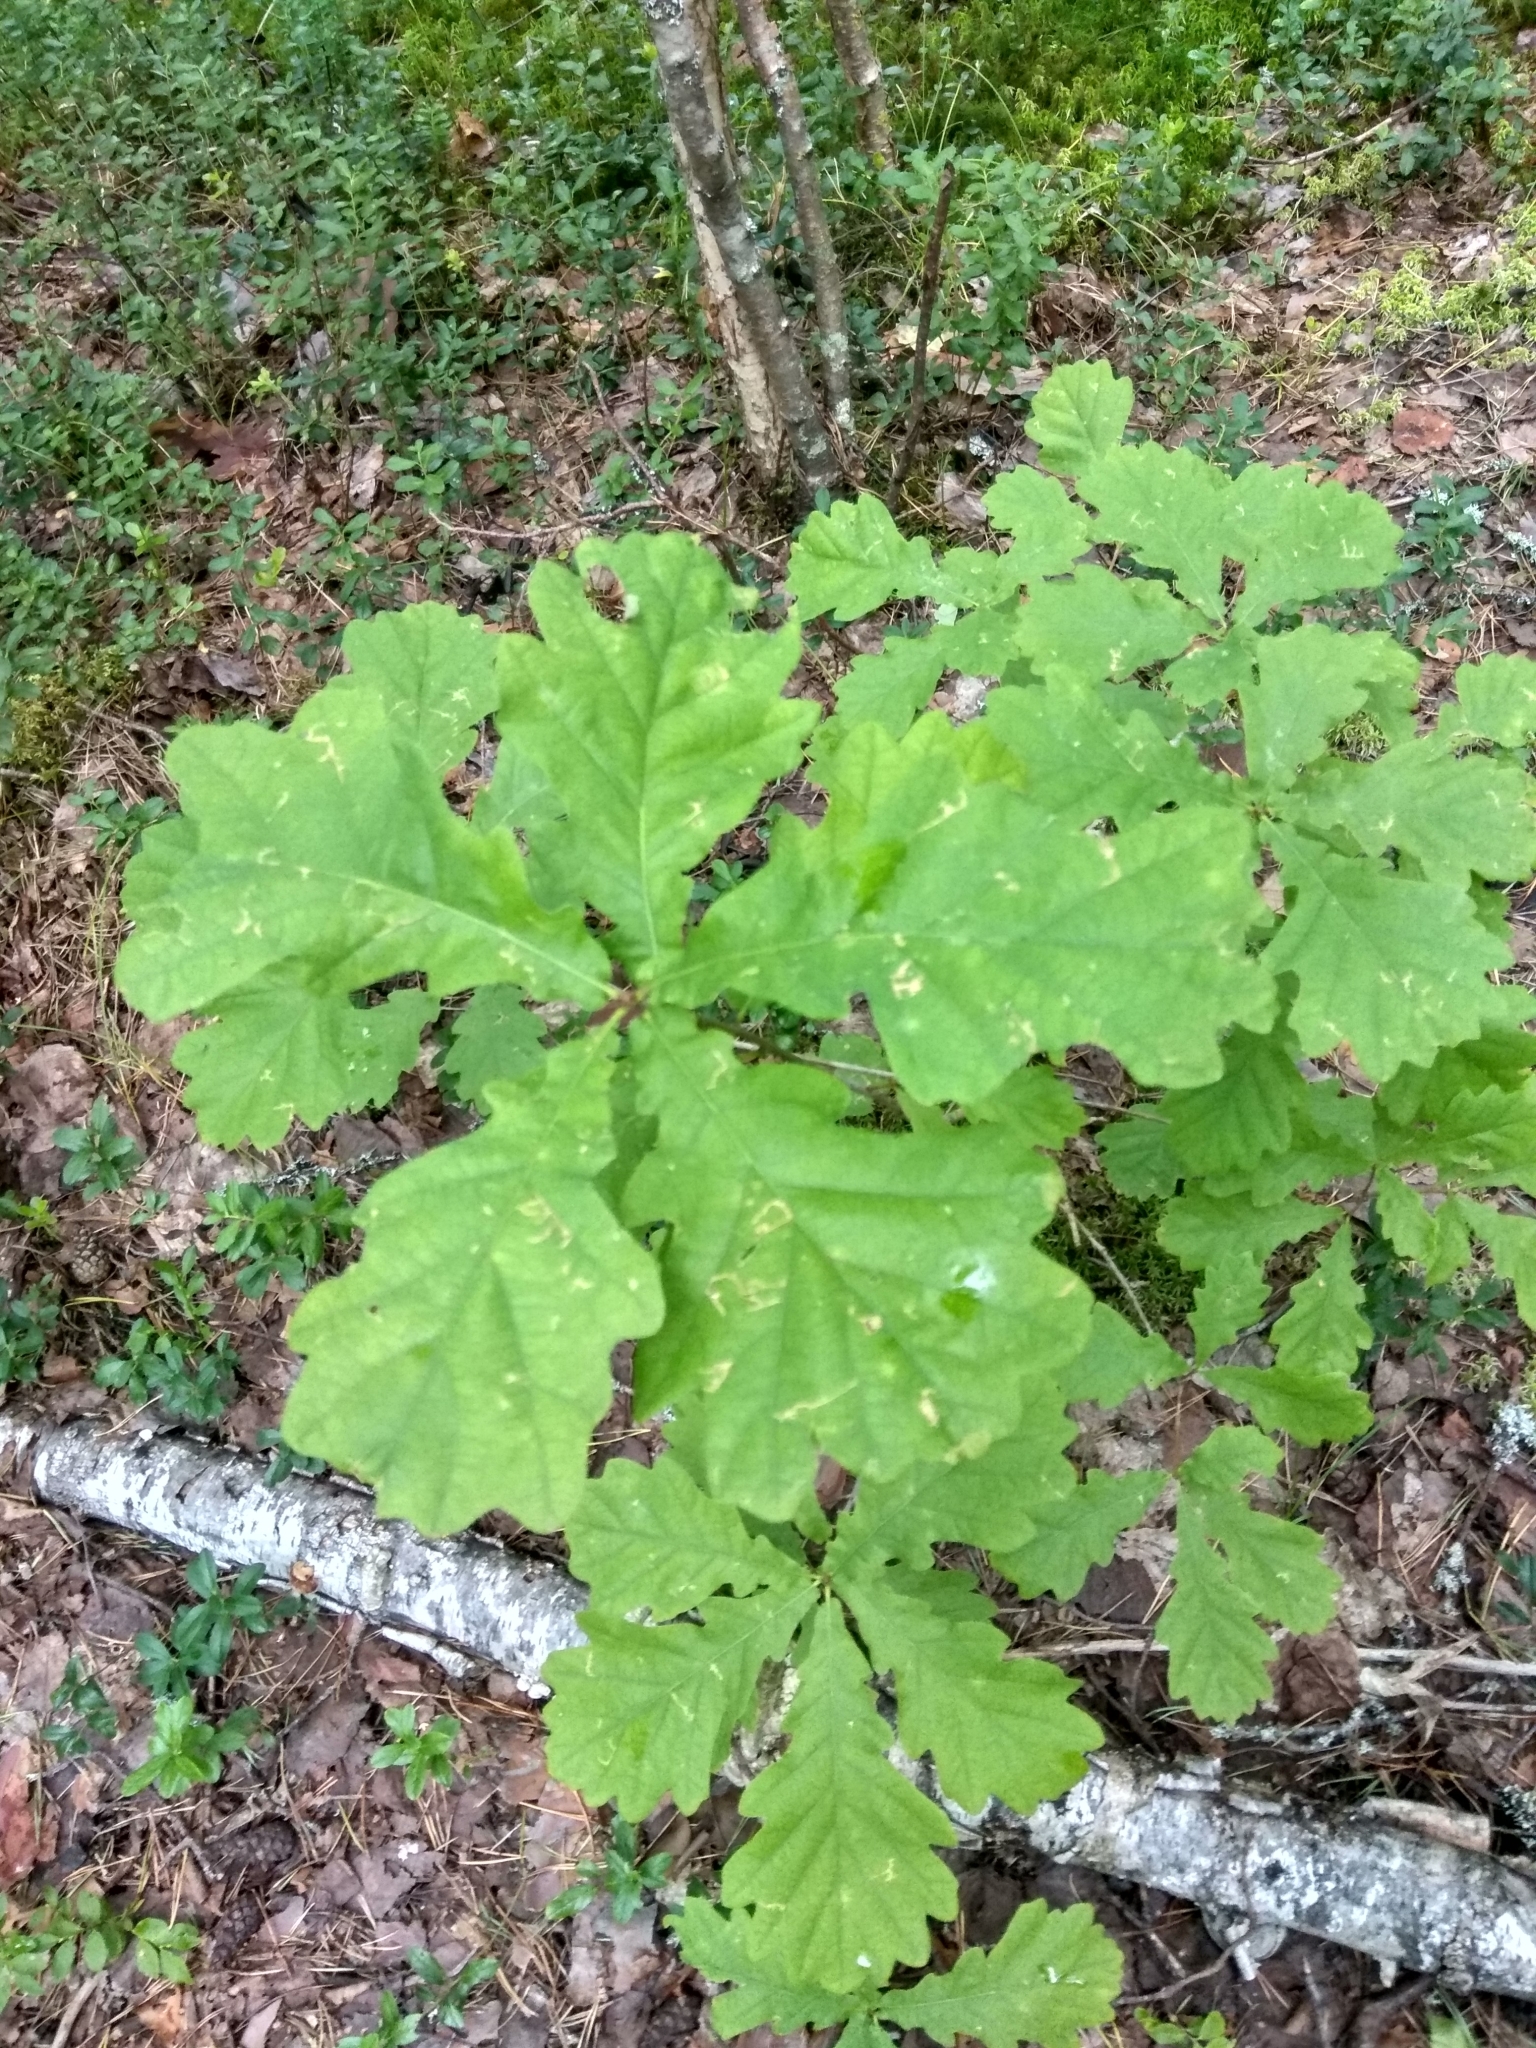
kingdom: Plantae
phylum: Tracheophyta
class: Magnoliopsida
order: Fagales
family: Fagaceae
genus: Quercus
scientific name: Quercus robur
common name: Pedunculate oak
